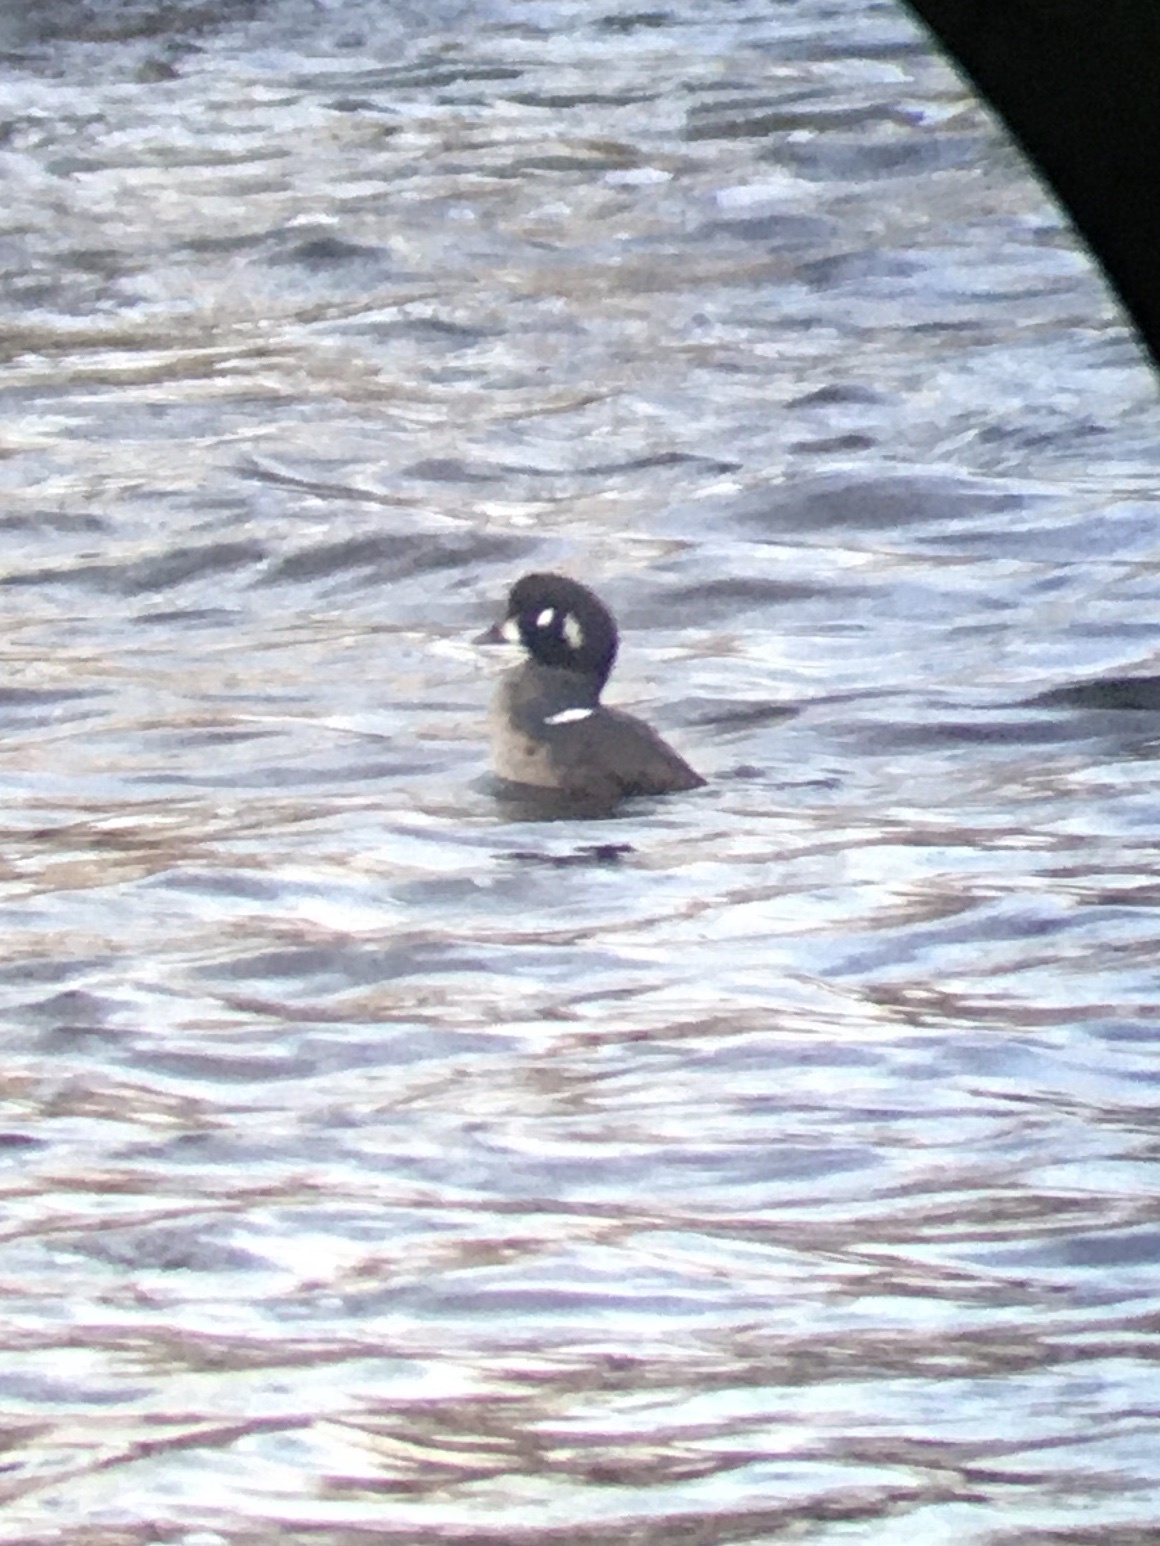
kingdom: Animalia
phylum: Chordata
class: Aves
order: Anseriformes
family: Anatidae
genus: Histrionicus
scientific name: Histrionicus histrionicus
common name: Harlequin duck
